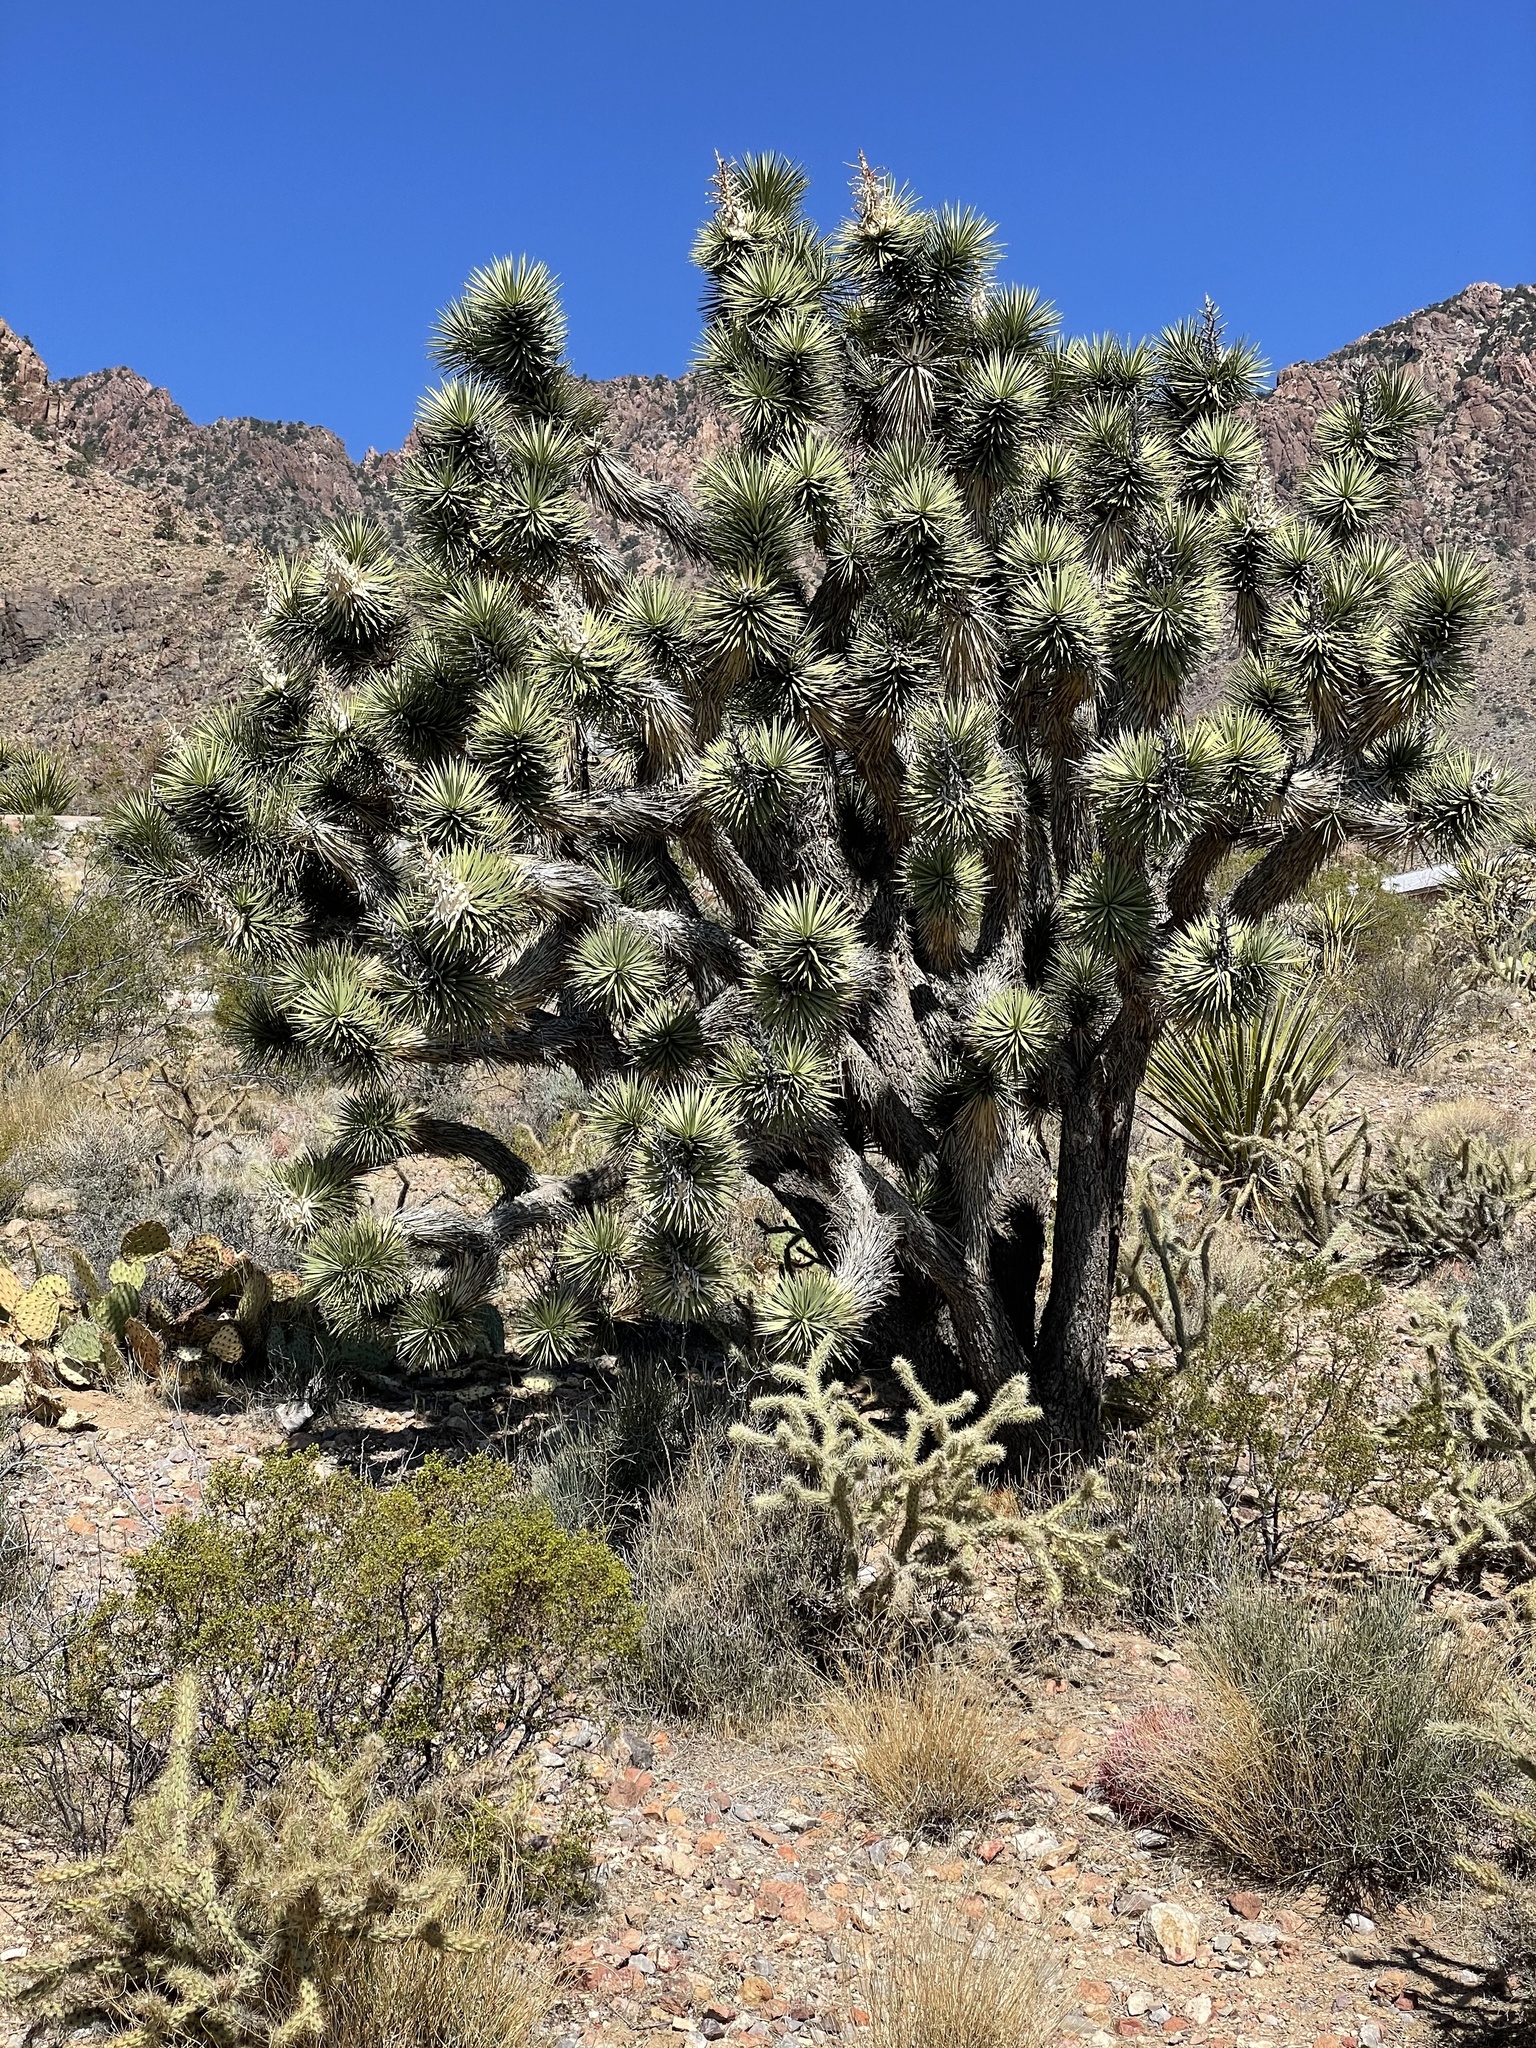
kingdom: Plantae
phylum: Tracheophyta
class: Liliopsida
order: Asparagales
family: Asparagaceae
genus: Yucca
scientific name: Yucca brevifolia
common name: Joshua tree
